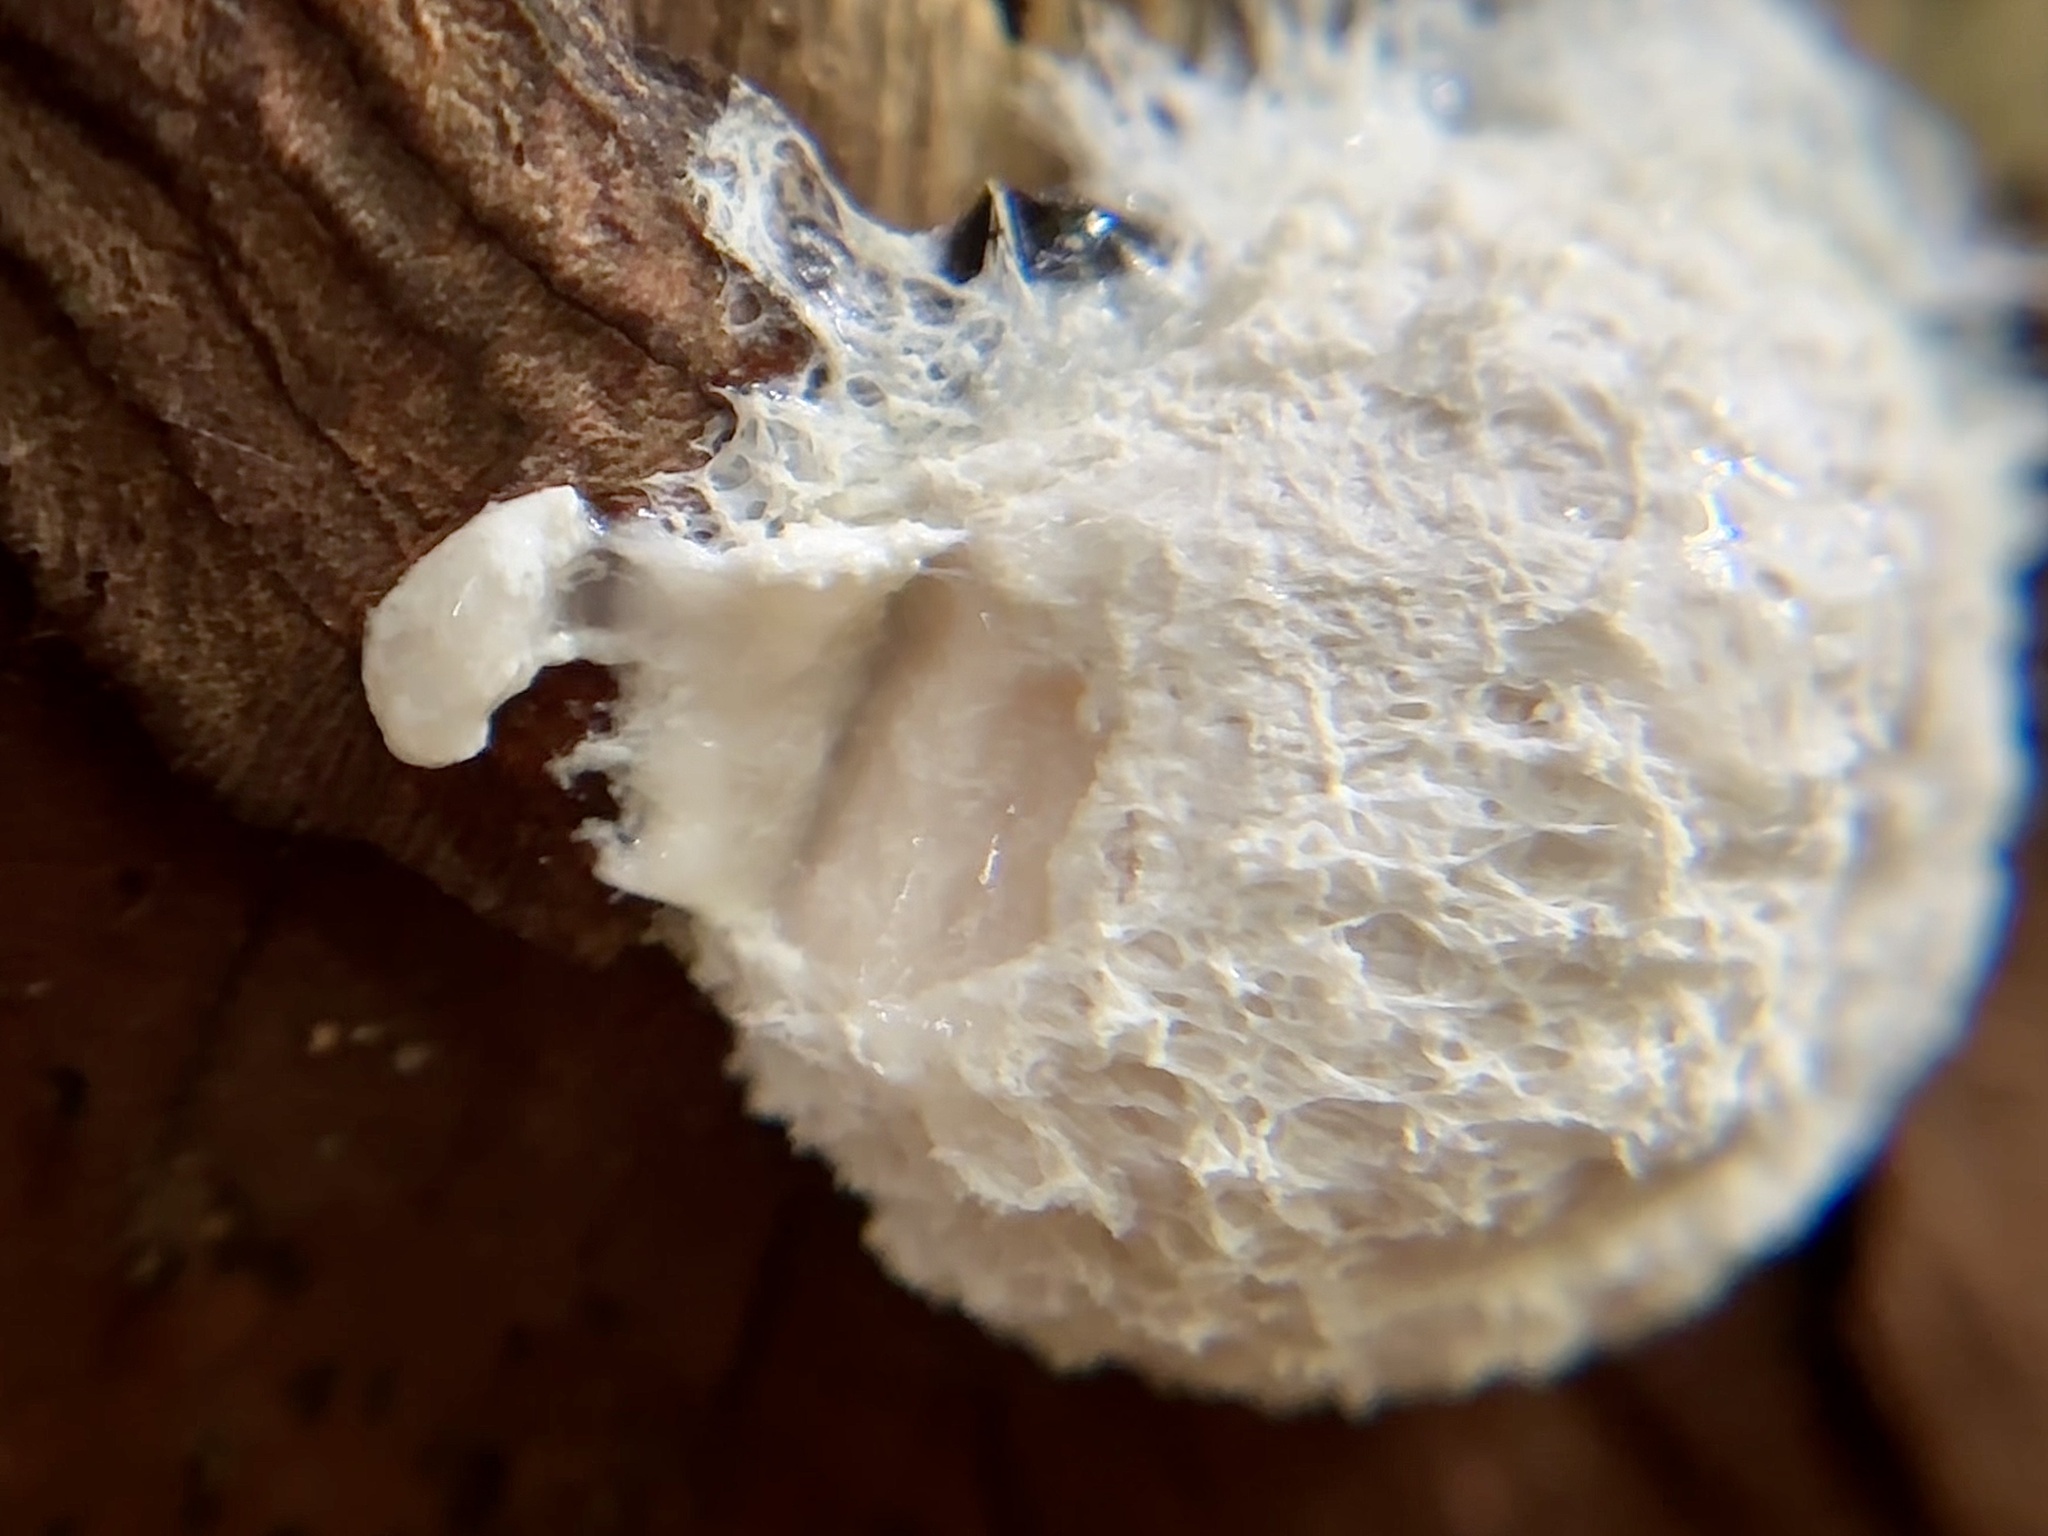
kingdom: Protozoa
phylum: Mycetozoa
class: Myxomycetes
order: Physarales
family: Physaraceae
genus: Fuligo
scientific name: Fuligo septica
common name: Dog vomit slime mold
